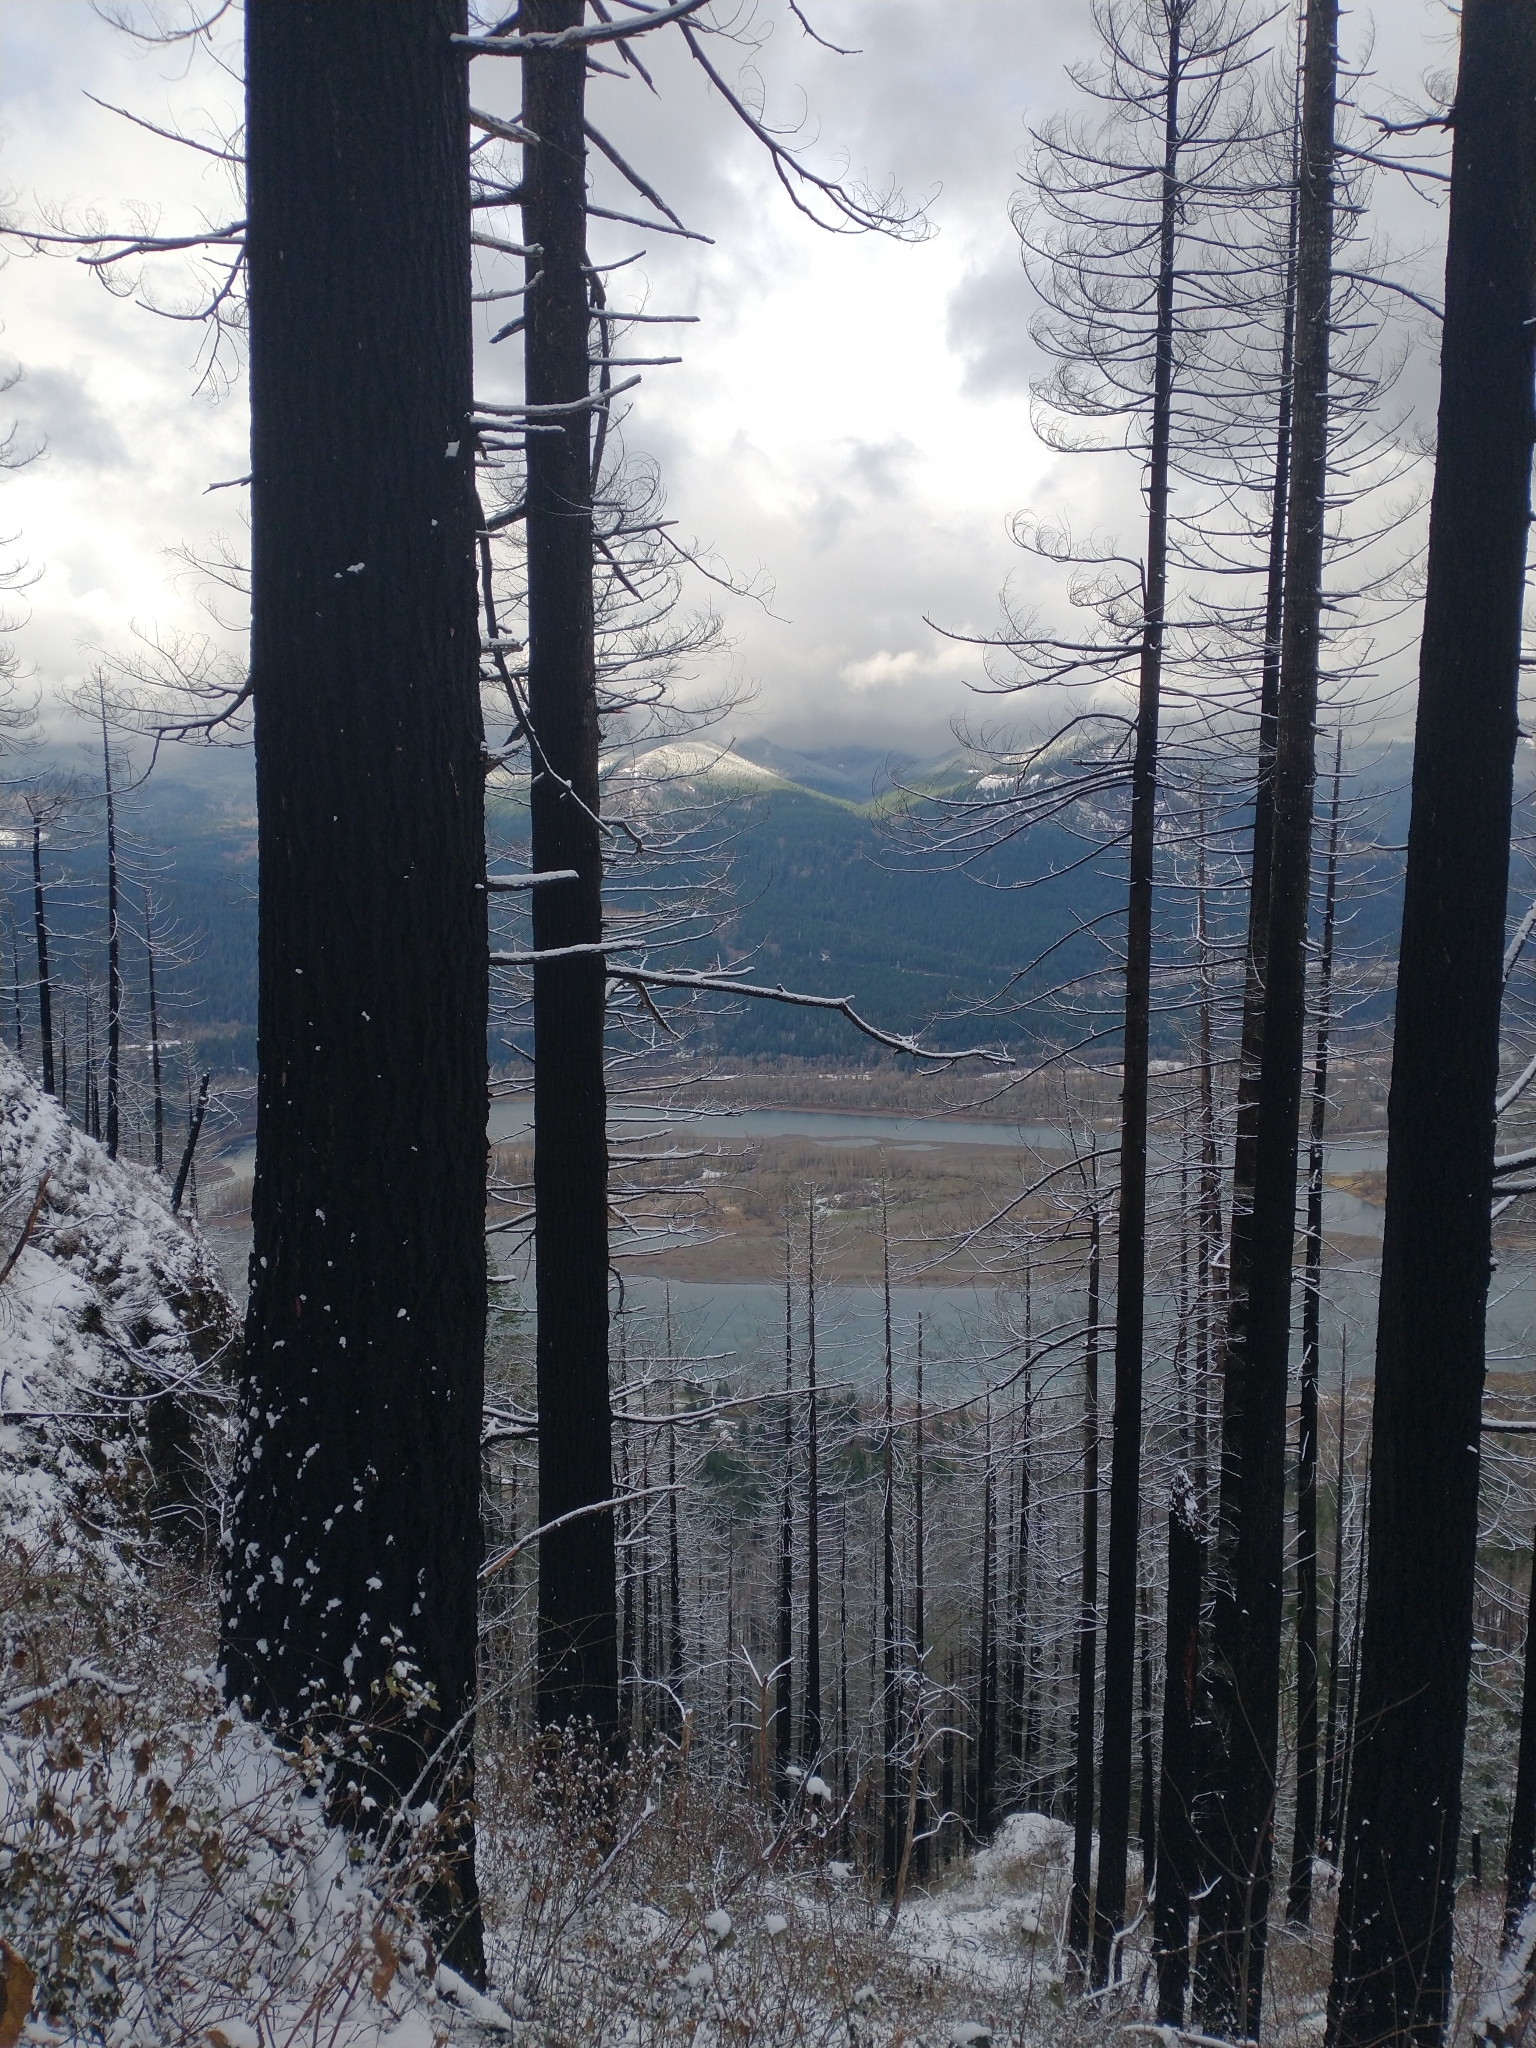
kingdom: Plantae
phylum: Tracheophyta
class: Pinopsida
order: Pinales
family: Pinaceae
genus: Pseudotsuga
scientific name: Pseudotsuga menziesii
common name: Douglas fir
